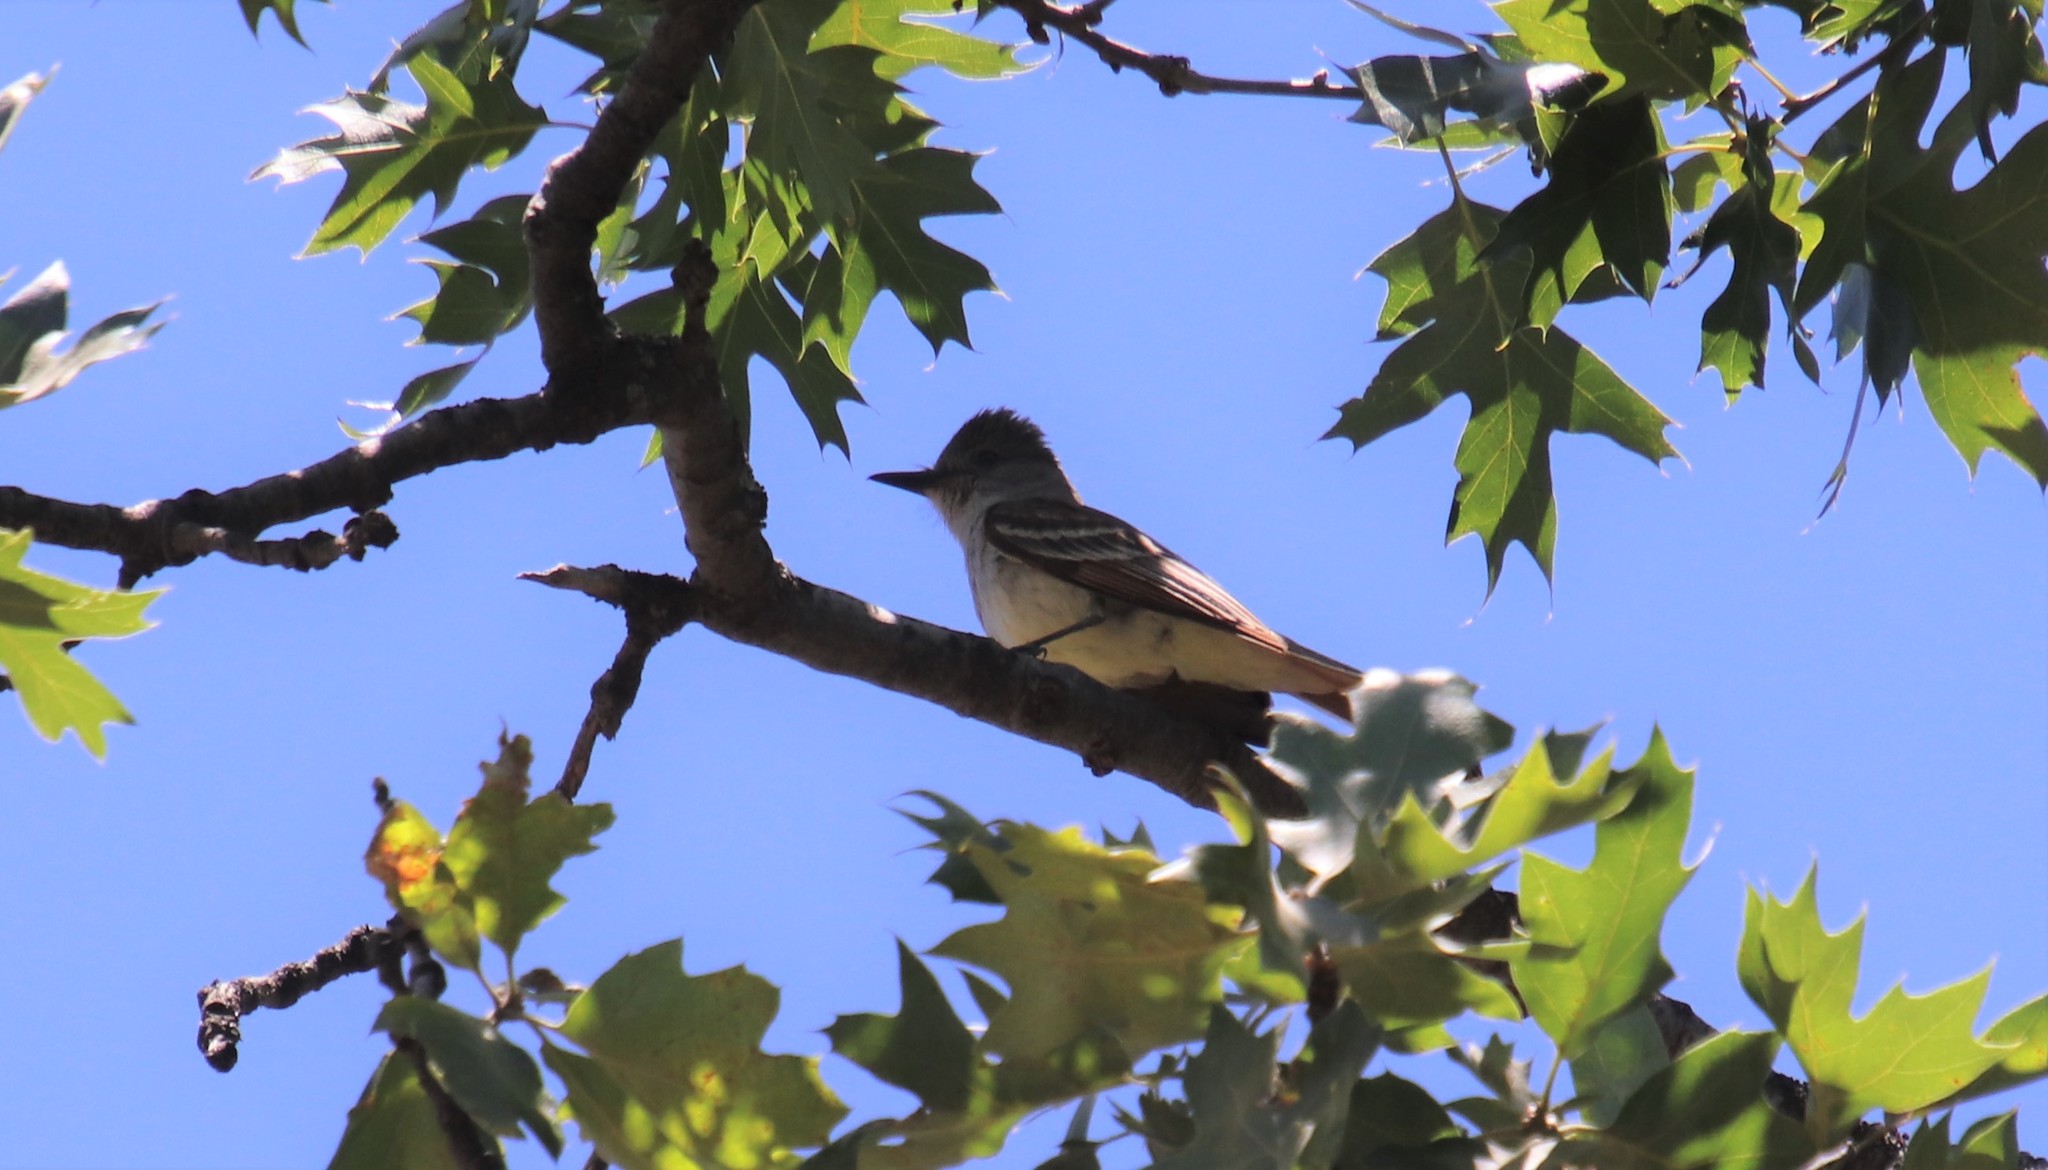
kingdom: Animalia
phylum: Chordata
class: Aves
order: Passeriformes
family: Tyrannidae
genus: Myiarchus
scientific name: Myiarchus cinerascens
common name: Ash-throated flycatcher
